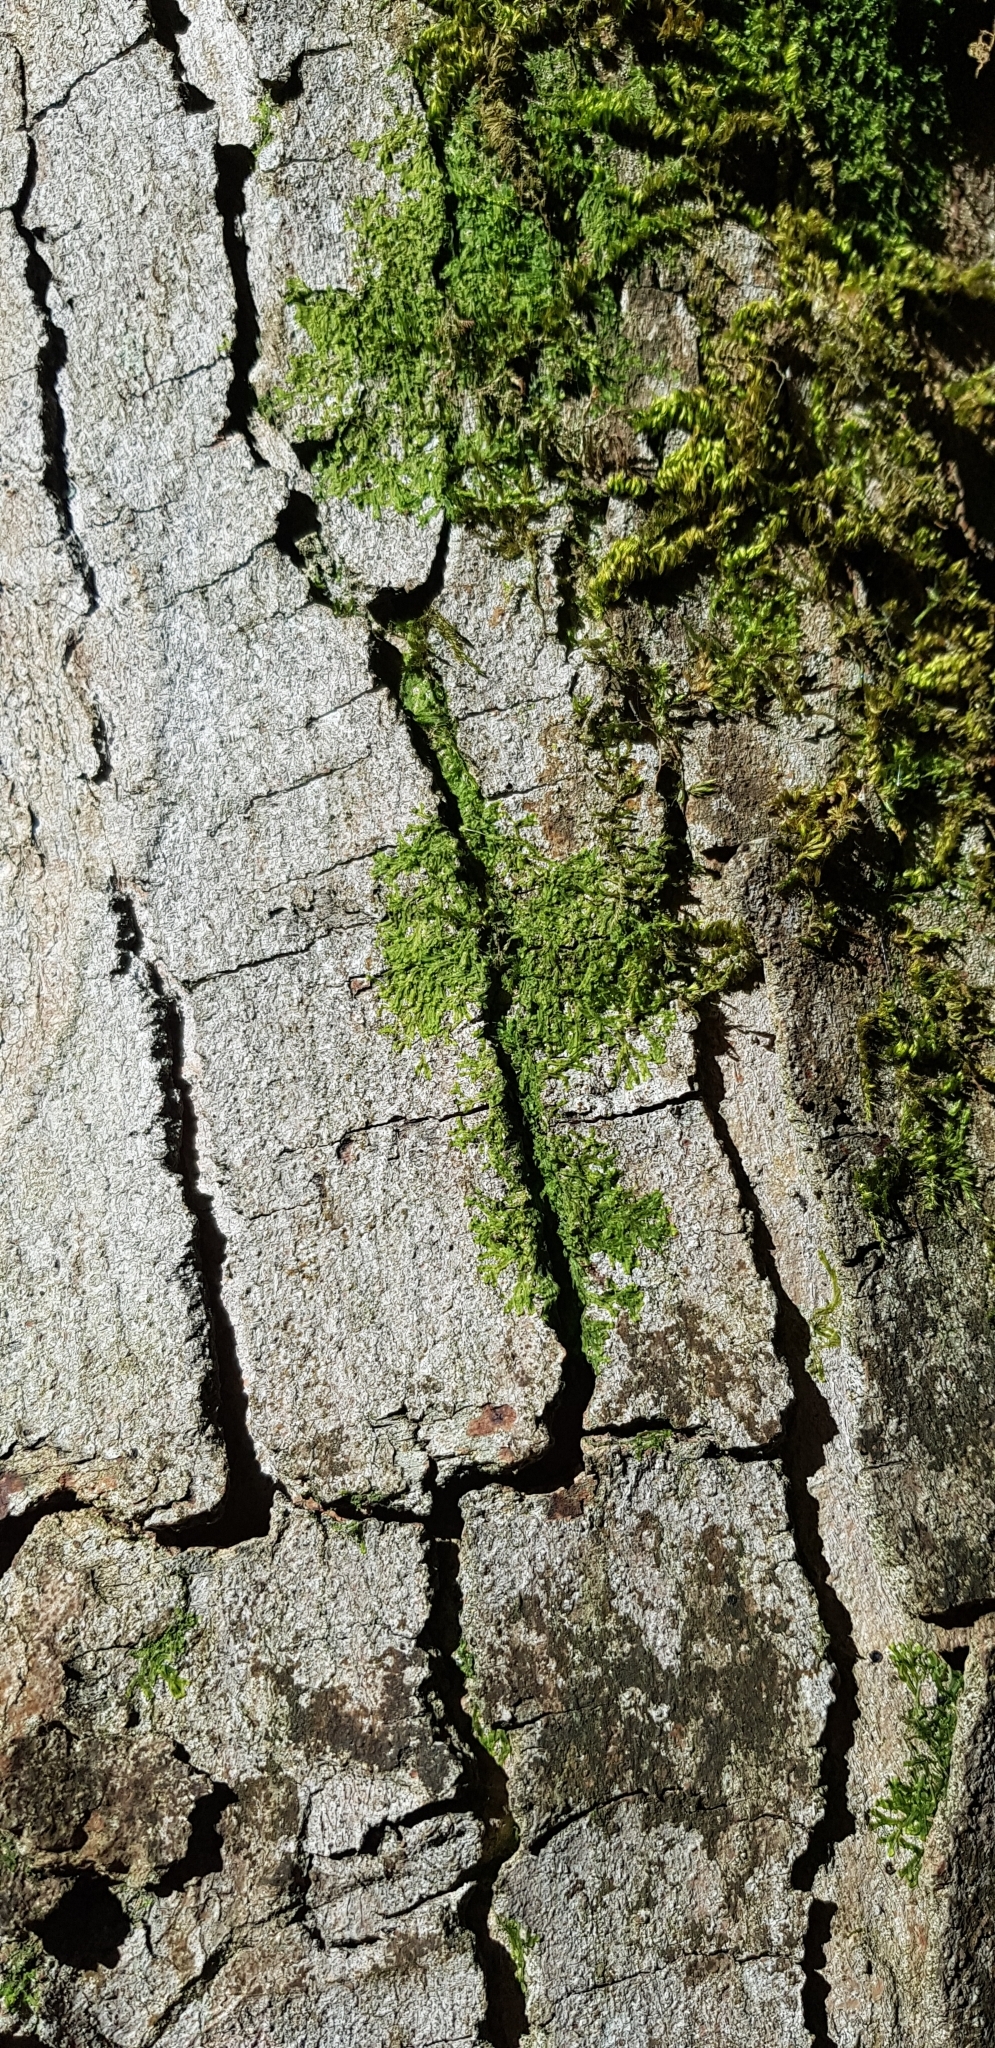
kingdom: Plantae
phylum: Marchantiophyta
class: Jungermanniopsida
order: Metzgeriales
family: Metzgeriaceae
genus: Metzgeria
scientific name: Metzgeria furcata
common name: Forked veilwort
